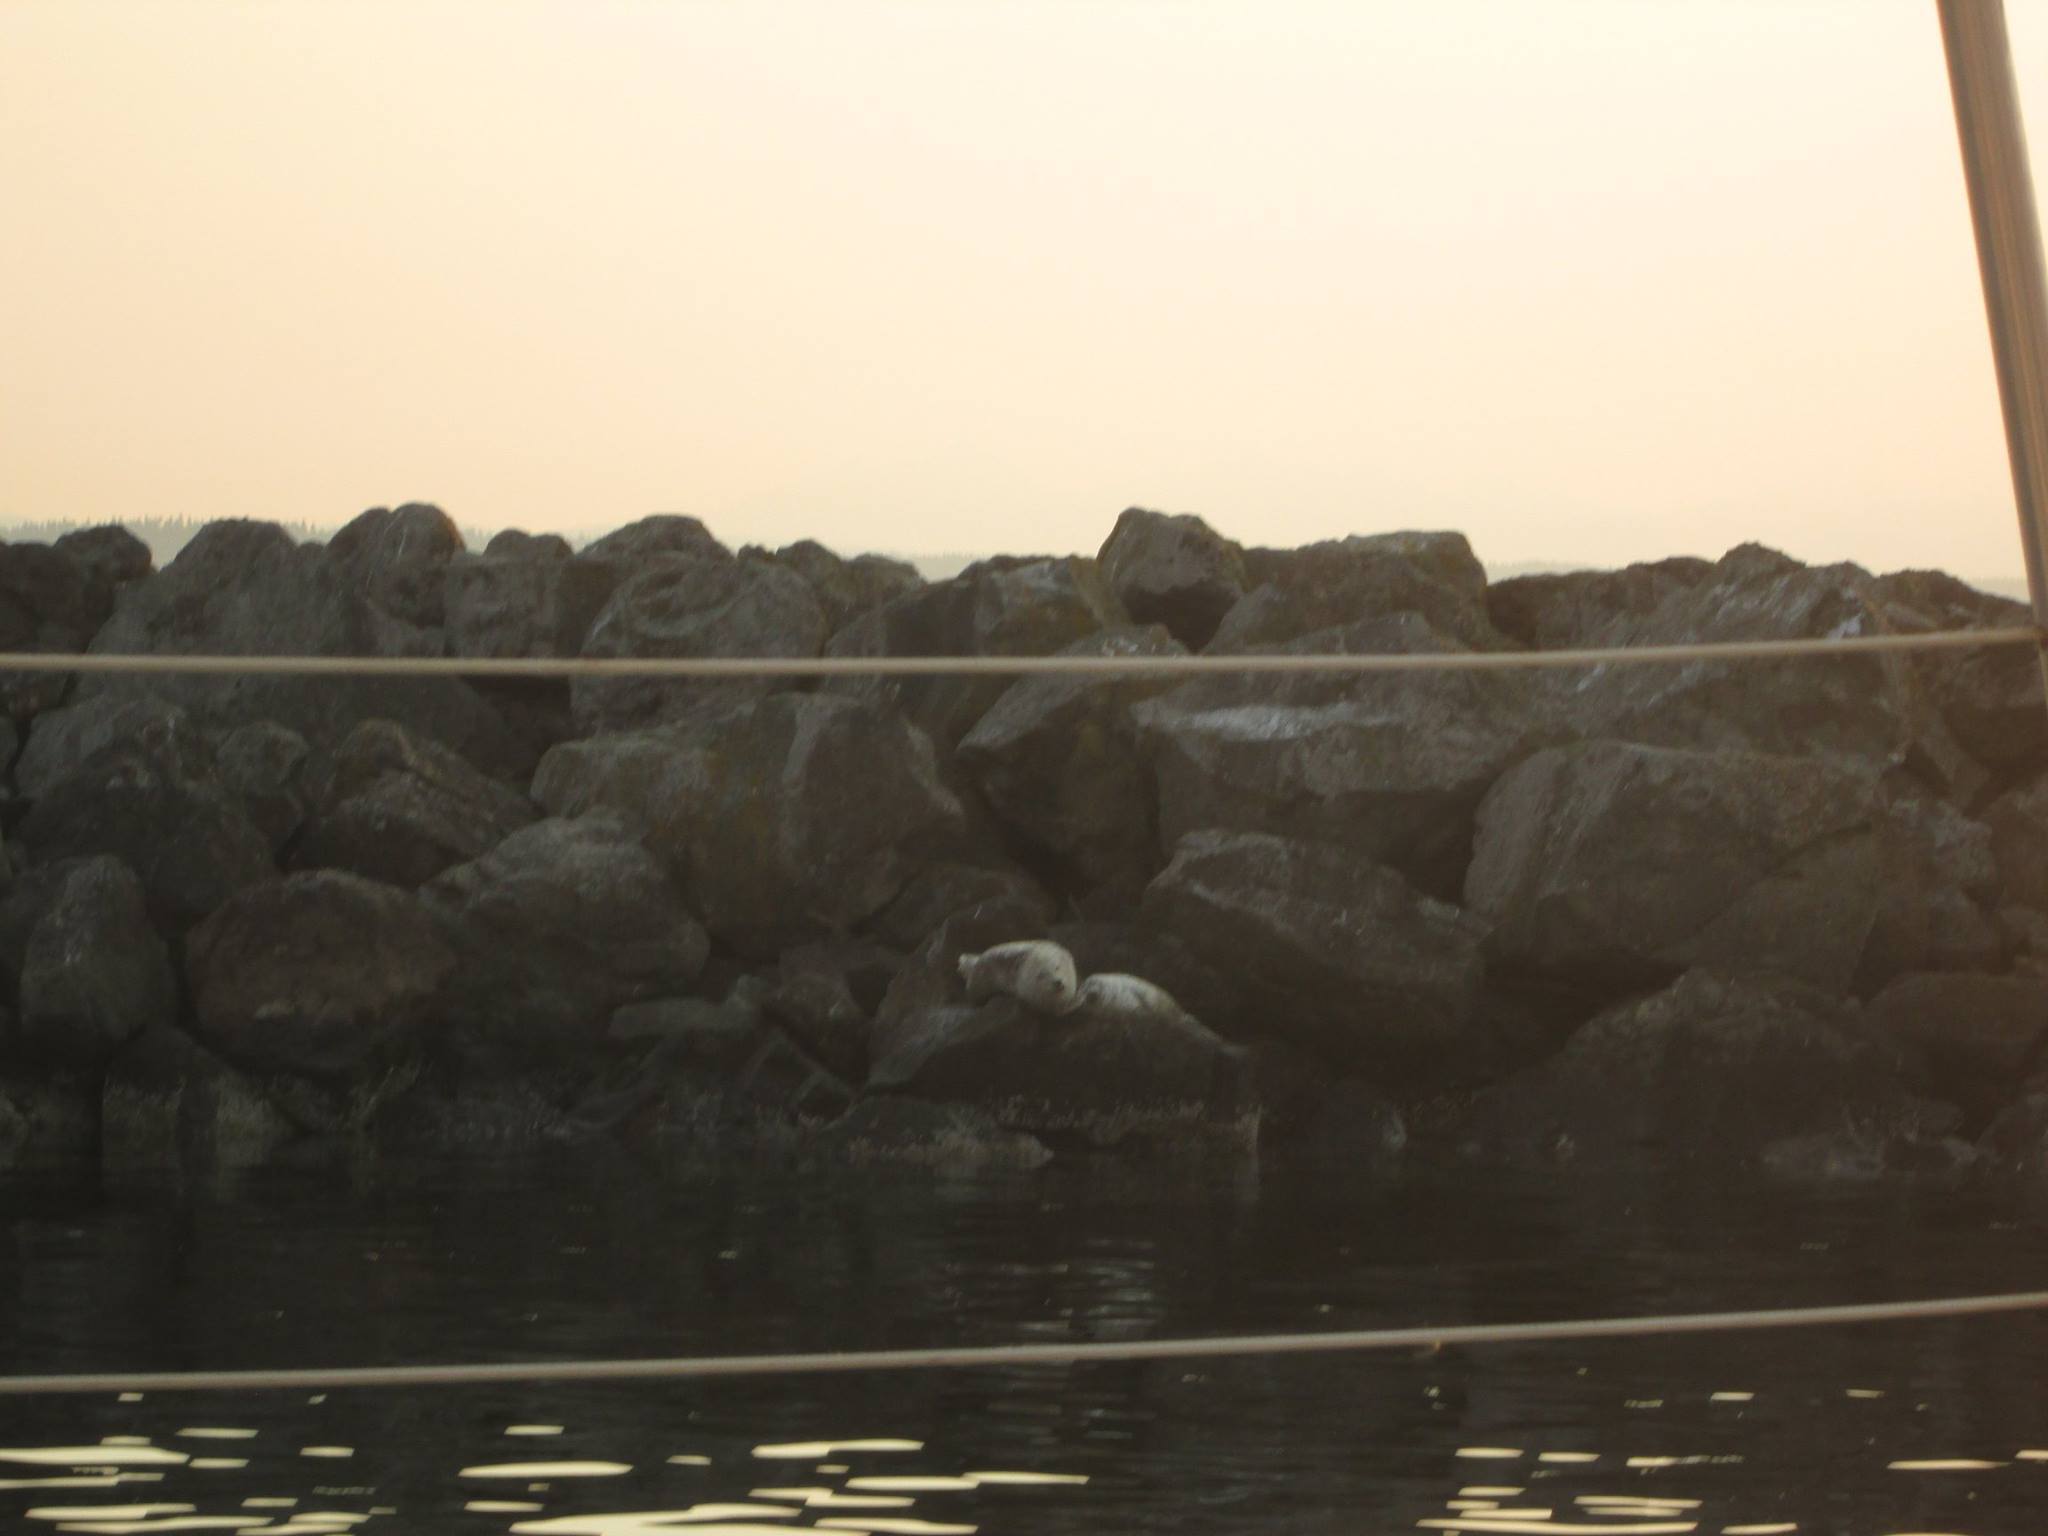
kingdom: Animalia
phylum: Chordata
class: Mammalia
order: Carnivora
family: Phocidae
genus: Phoca
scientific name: Phoca vitulina
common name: Harbor seal
